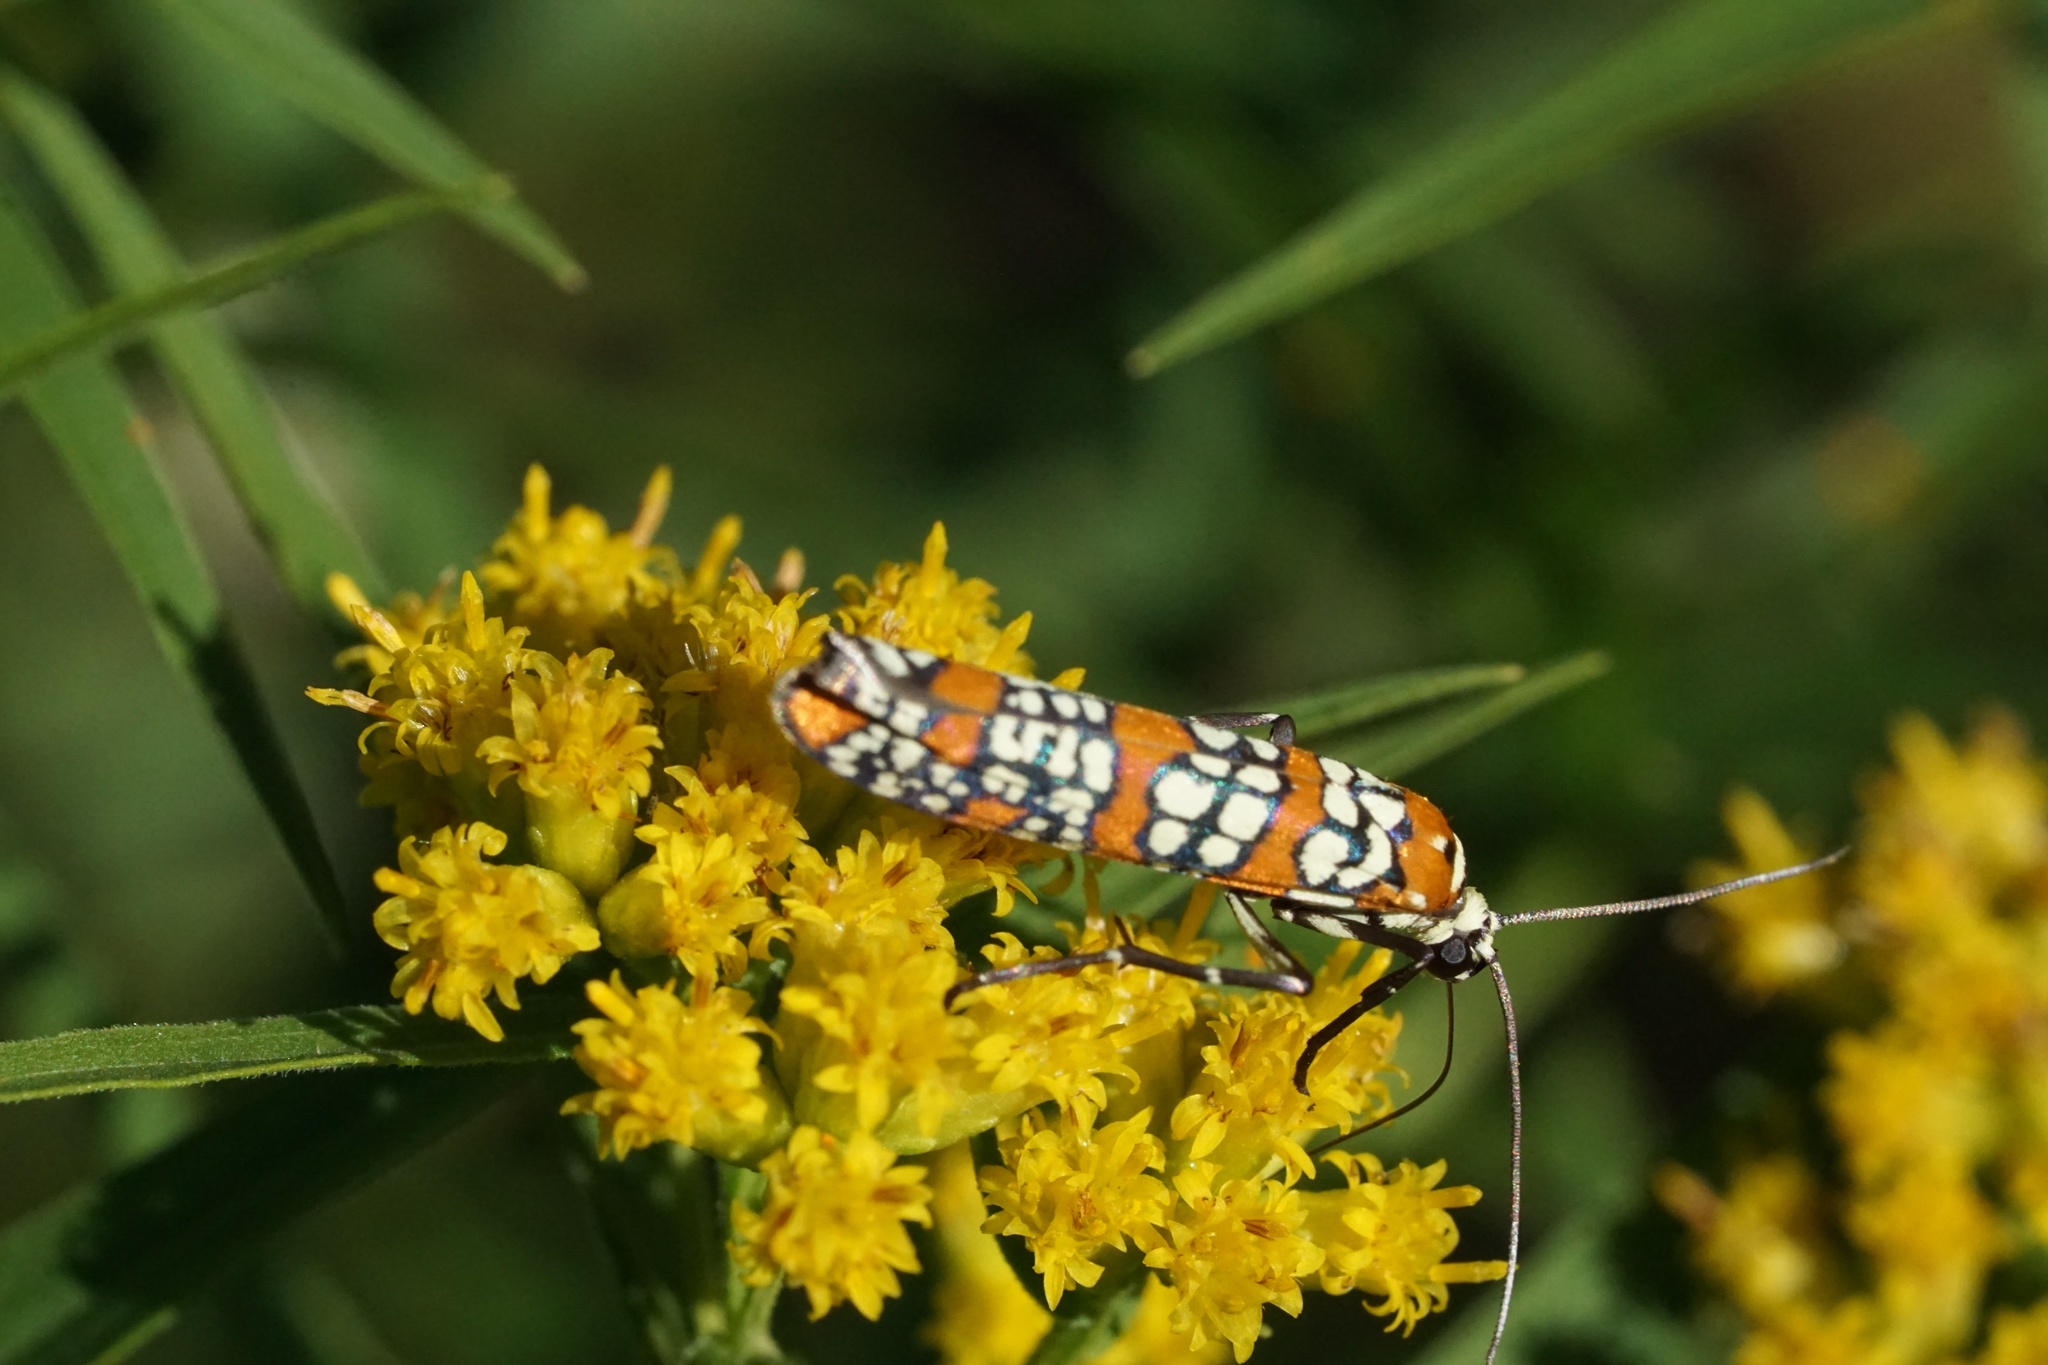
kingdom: Animalia
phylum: Arthropoda
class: Insecta
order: Lepidoptera
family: Attevidae
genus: Atteva
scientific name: Atteva punctella
